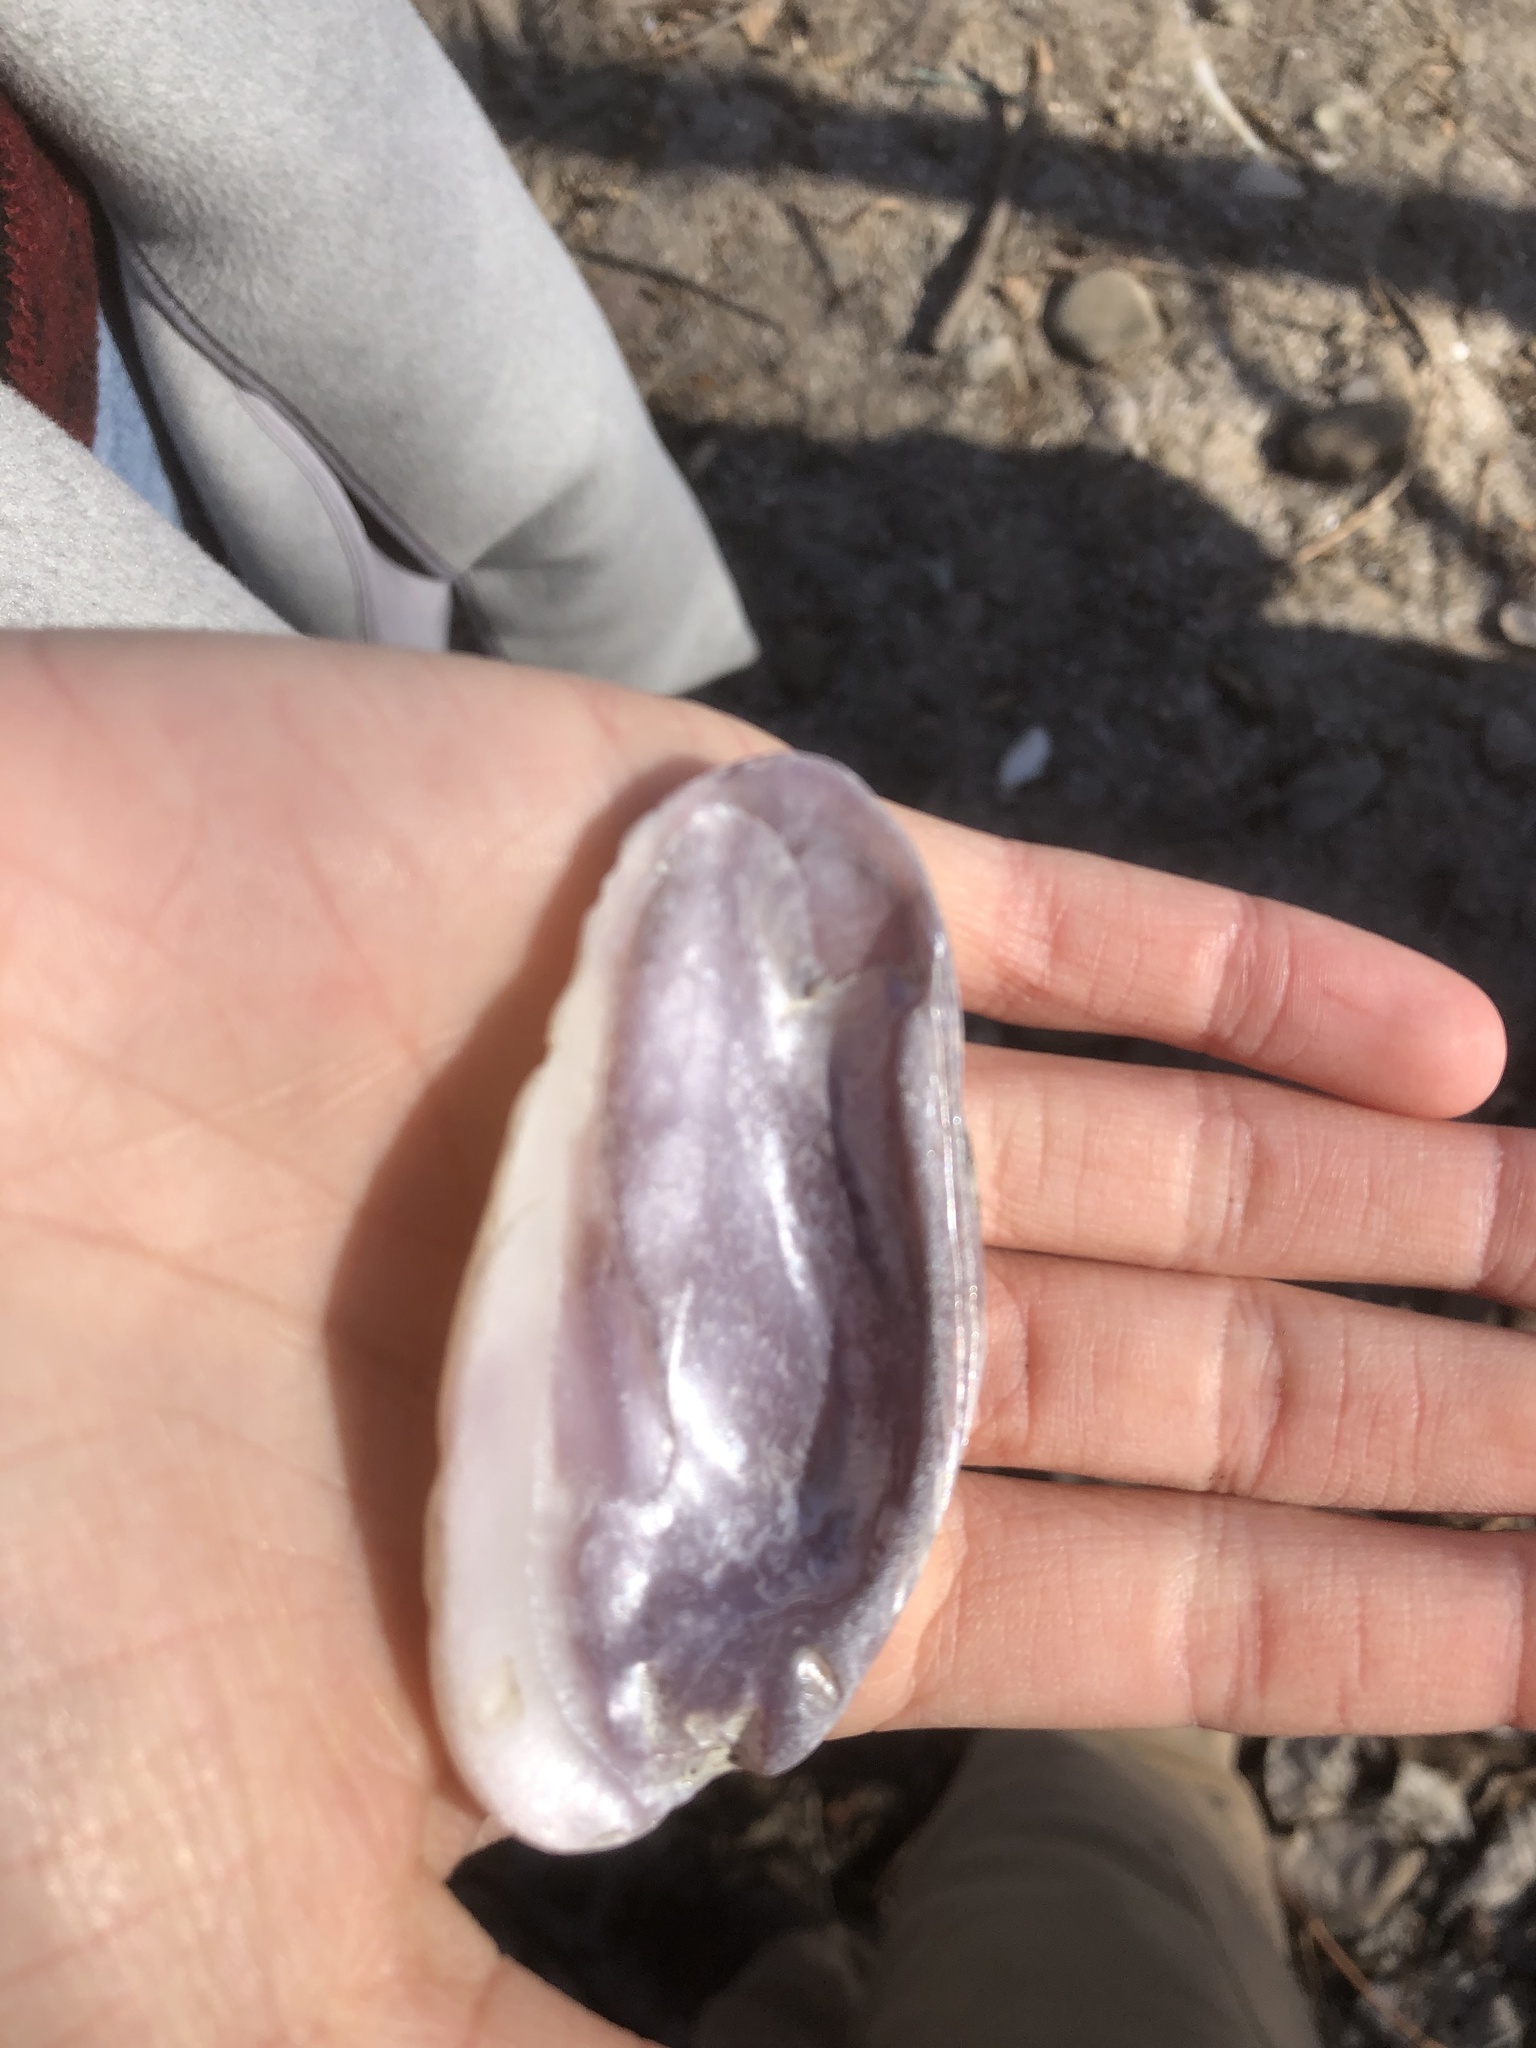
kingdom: Animalia
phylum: Mollusca
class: Bivalvia
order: Unionida
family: Unionidae
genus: Eurynia
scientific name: Eurynia dilatata
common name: Spike
